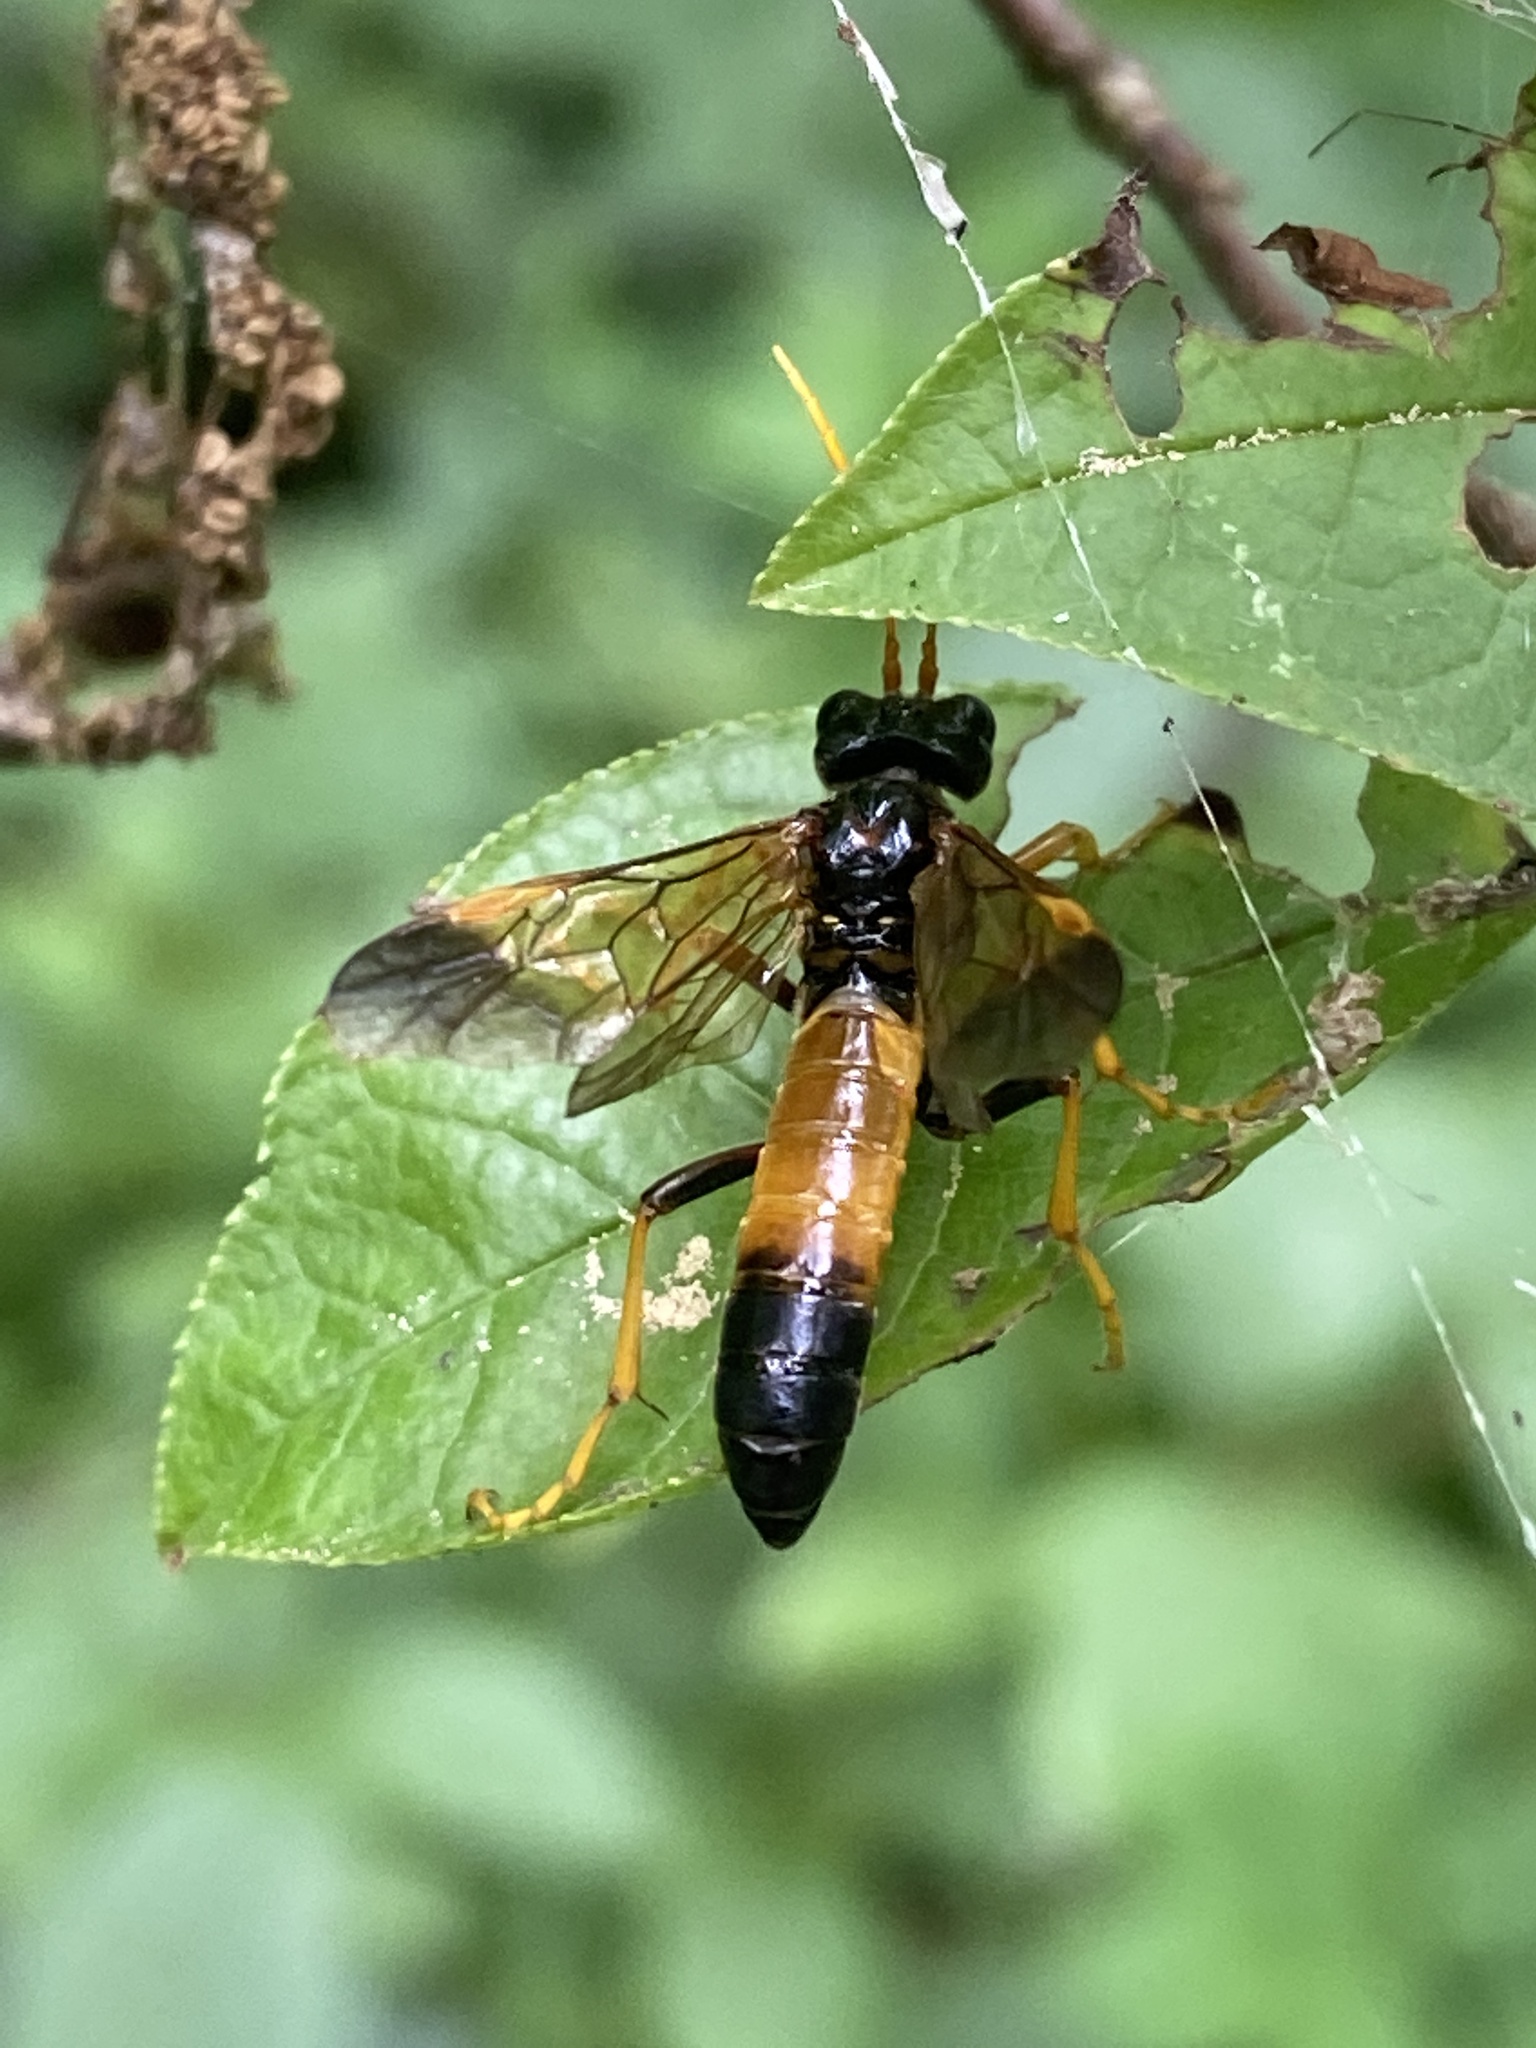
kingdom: Animalia
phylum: Arthropoda
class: Insecta
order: Hymenoptera
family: Tenthredinidae
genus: Tenthredo
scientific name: Tenthredo campestris
